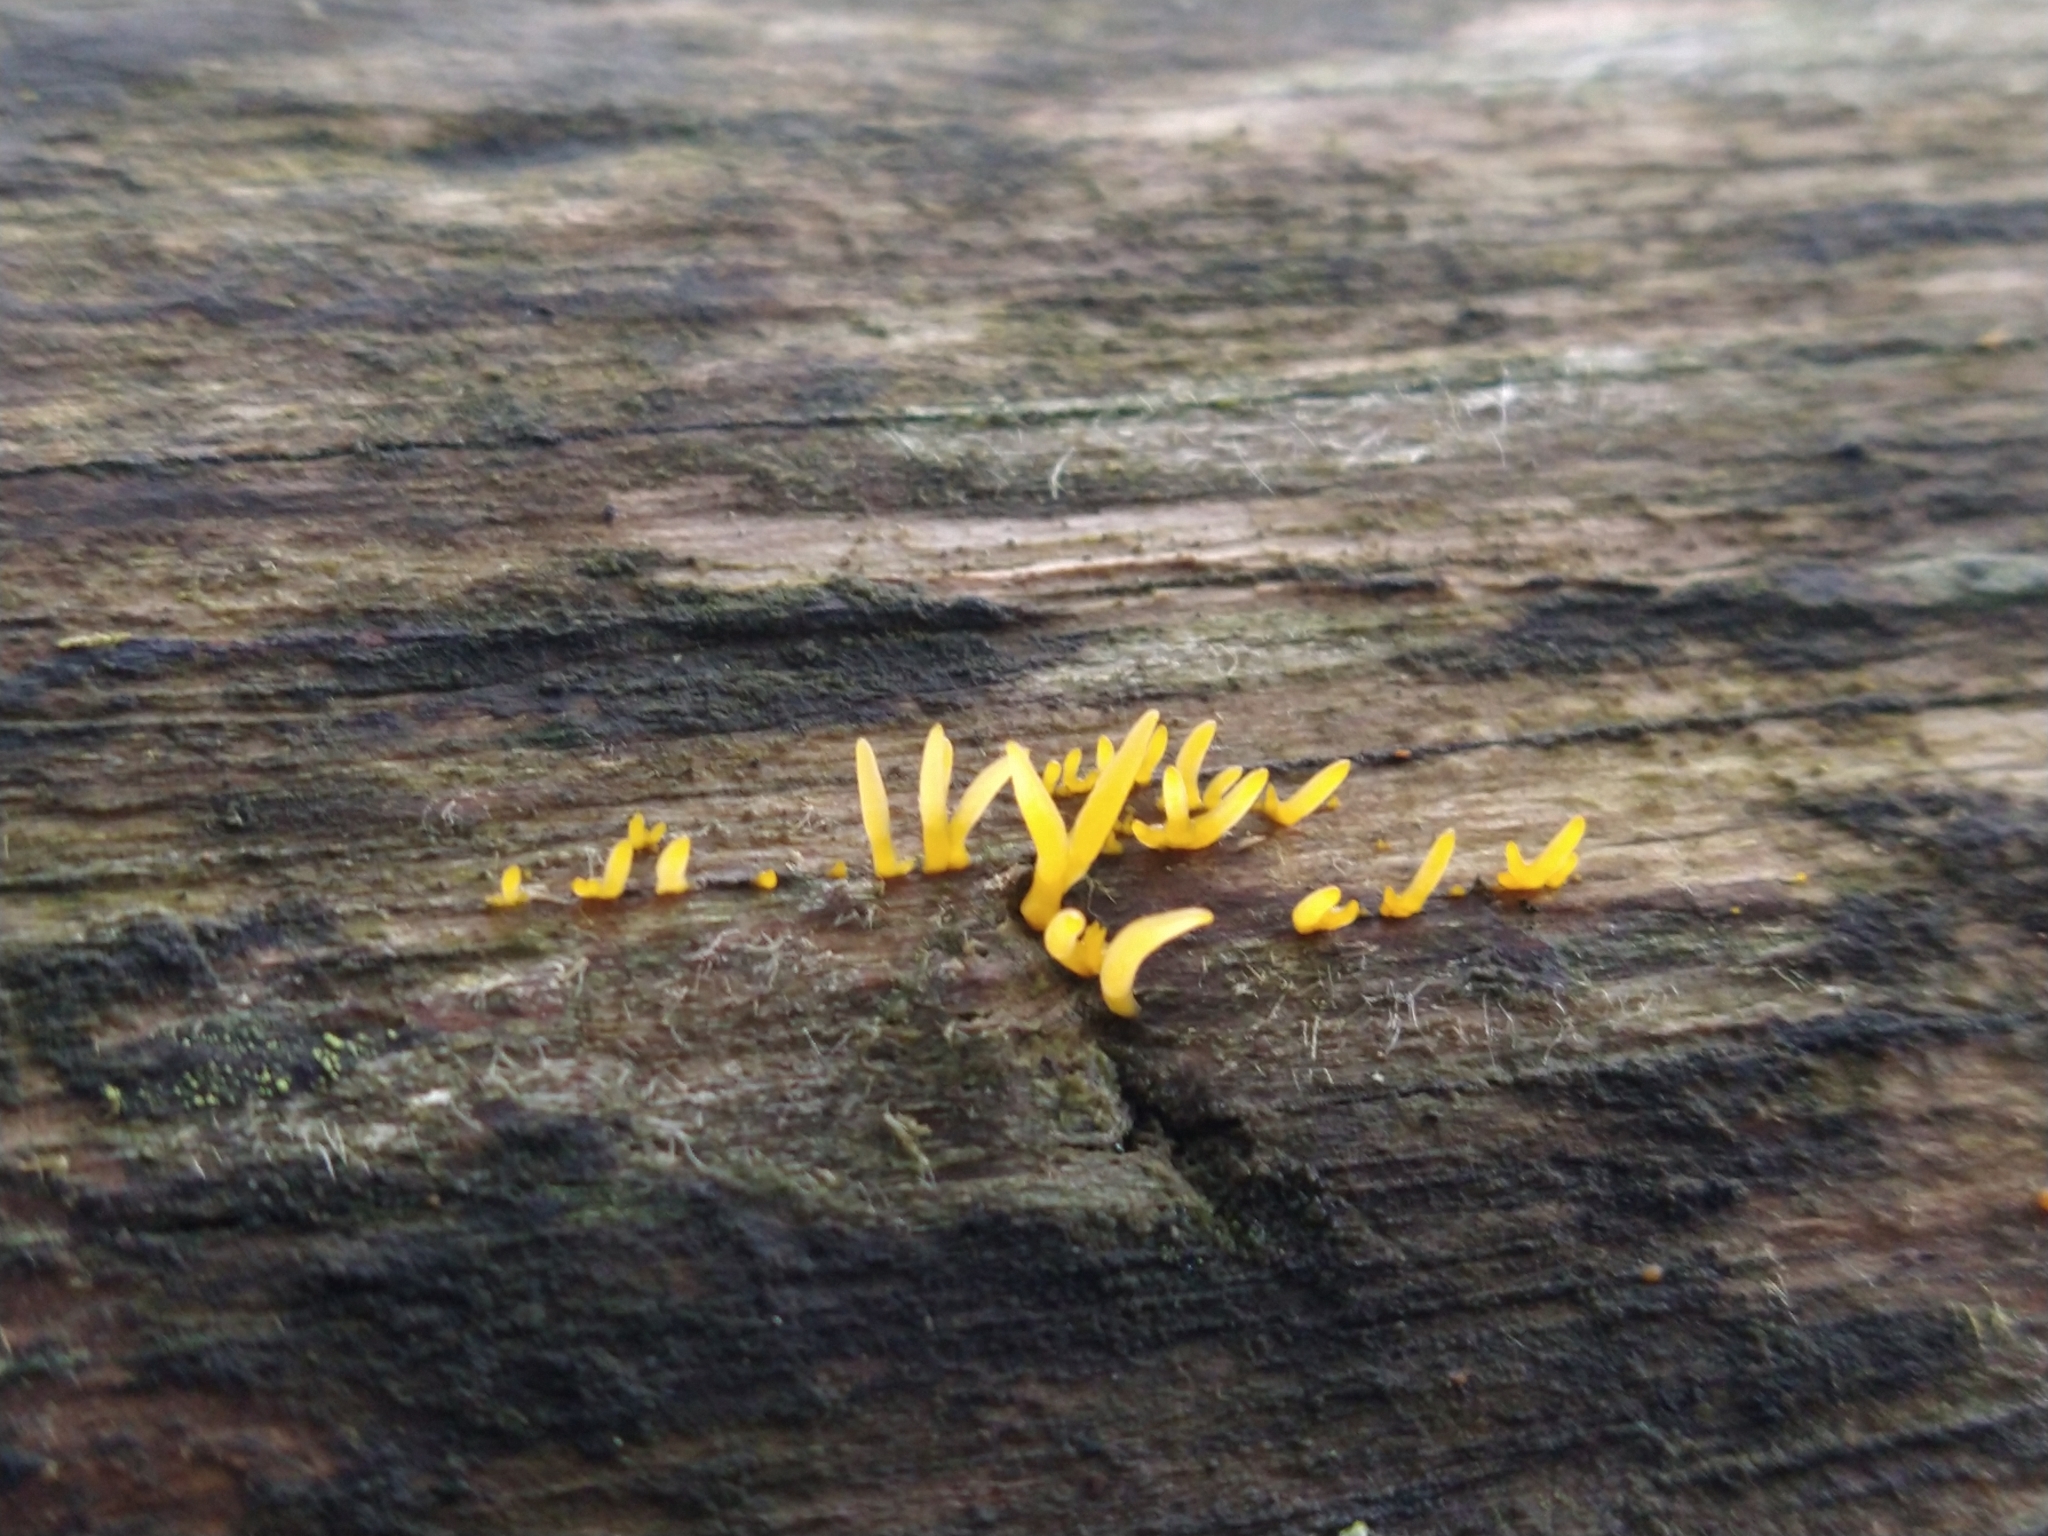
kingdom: Fungi
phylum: Basidiomycota
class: Dacrymycetes
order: Dacrymycetales
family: Dacrymycetaceae
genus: Calocera
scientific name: Calocera cornea
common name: Small stagshorn
